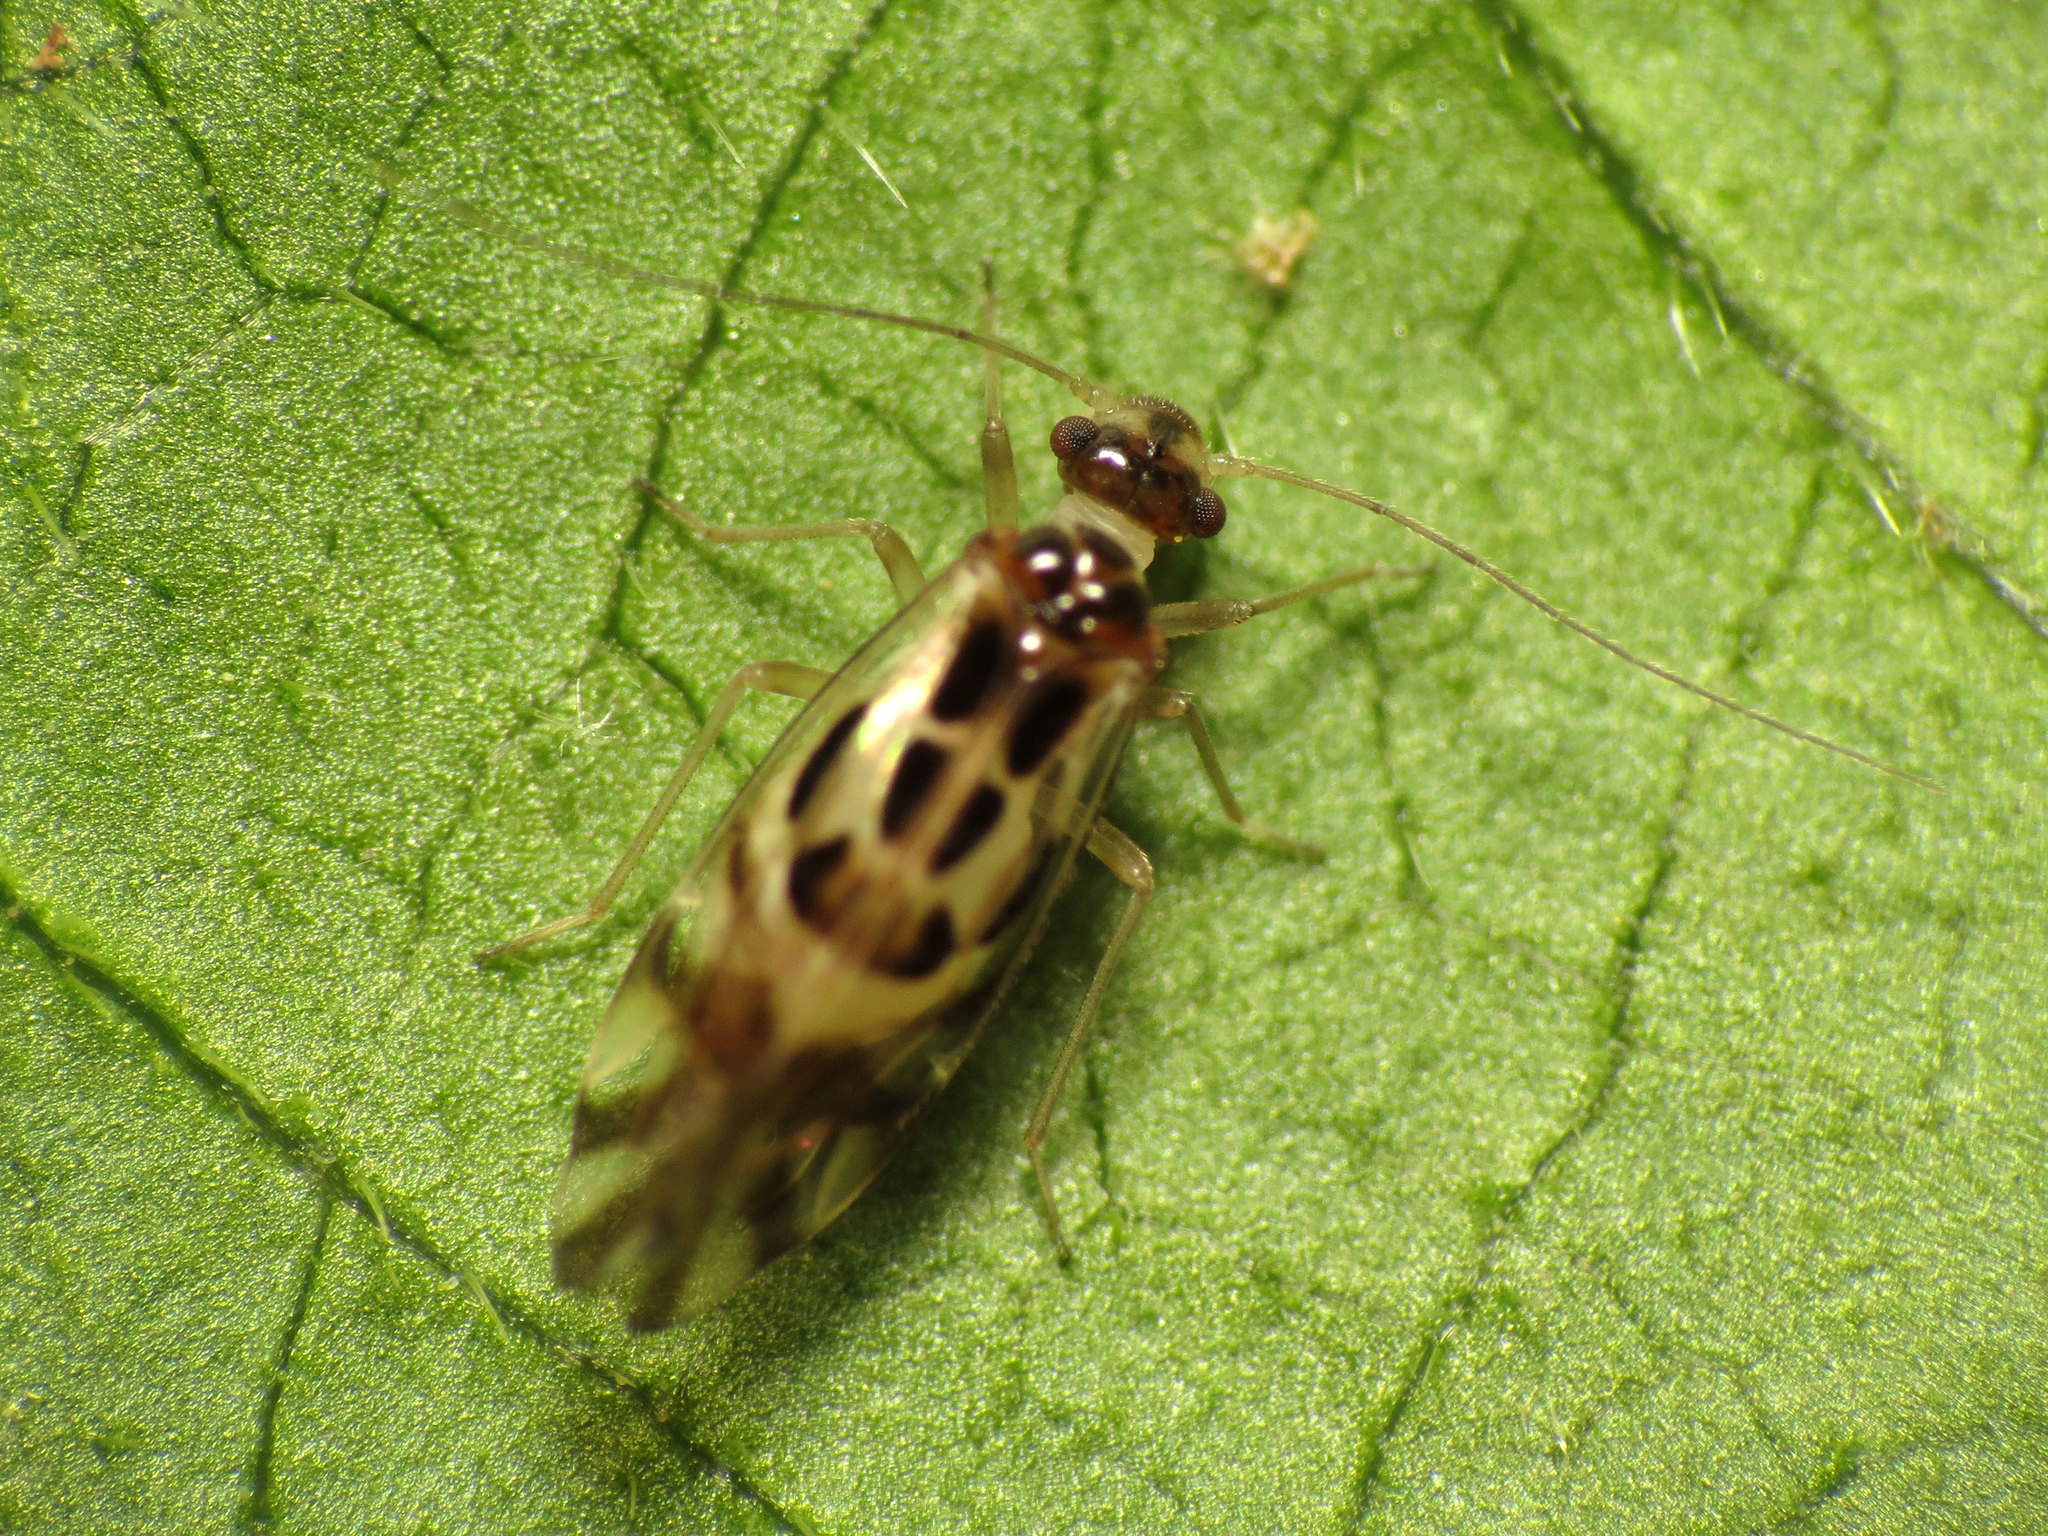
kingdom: Animalia
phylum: Arthropoda
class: Insecta
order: Psocodea
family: Stenopsocidae
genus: Graphopsocus
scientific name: Graphopsocus cruciatus
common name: Lizard bark louse
